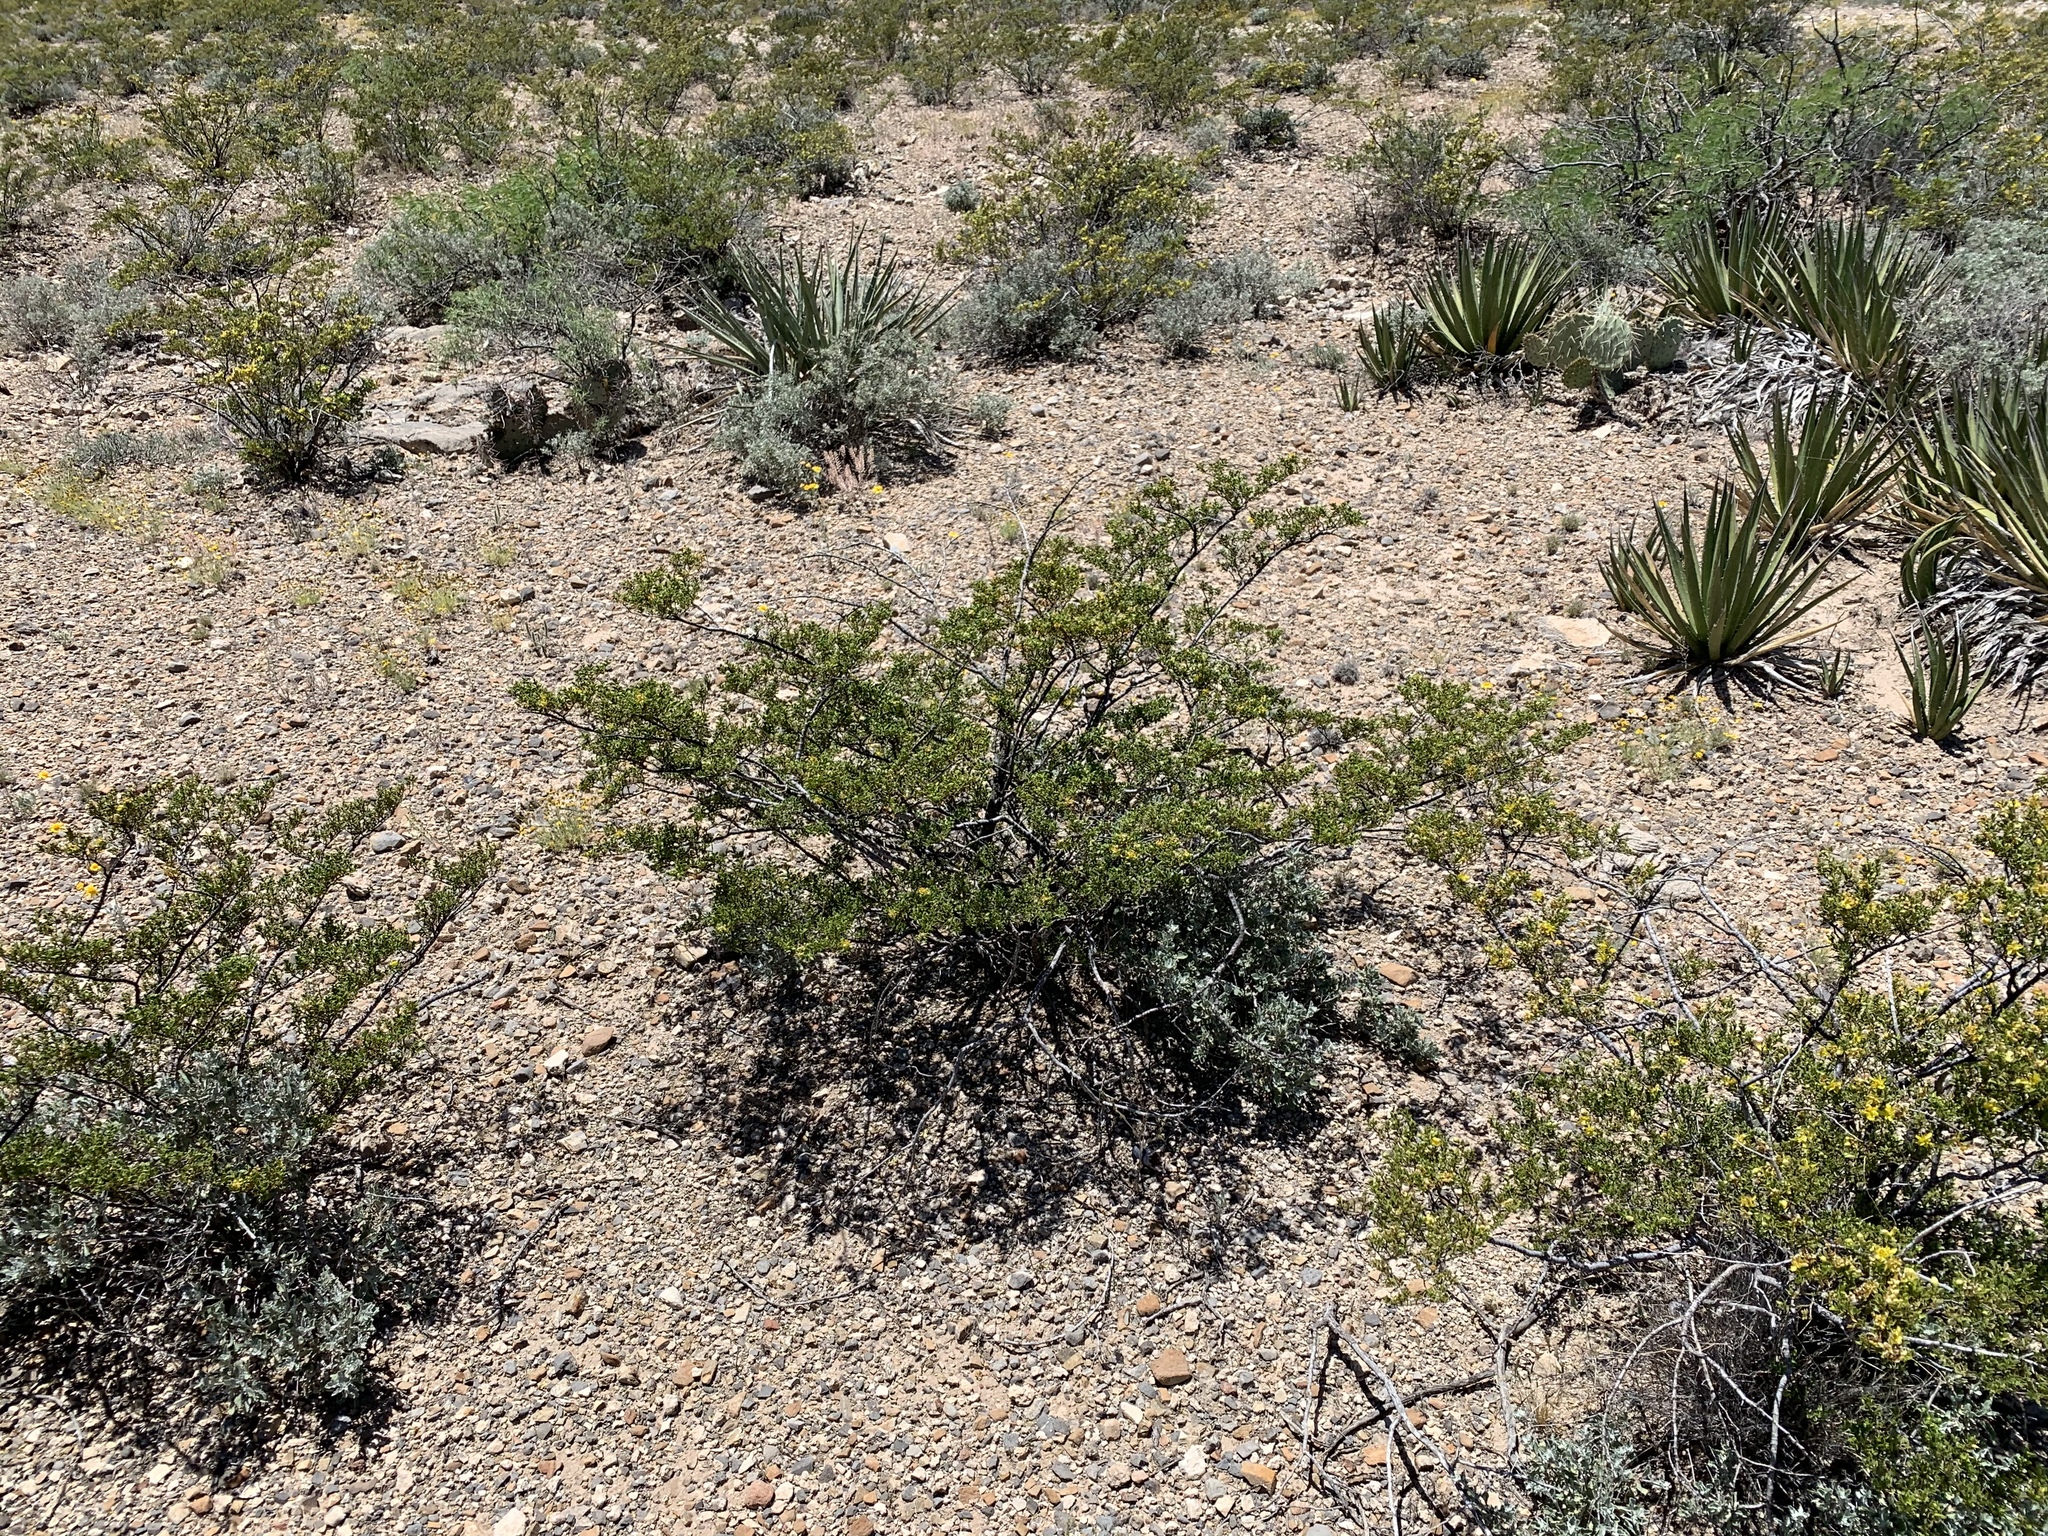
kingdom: Plantae
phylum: Tracheophyta
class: Magnoliopsida
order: Zygophyllales
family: Zygophyllaceae
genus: Larrea
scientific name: Larrea tridentata
